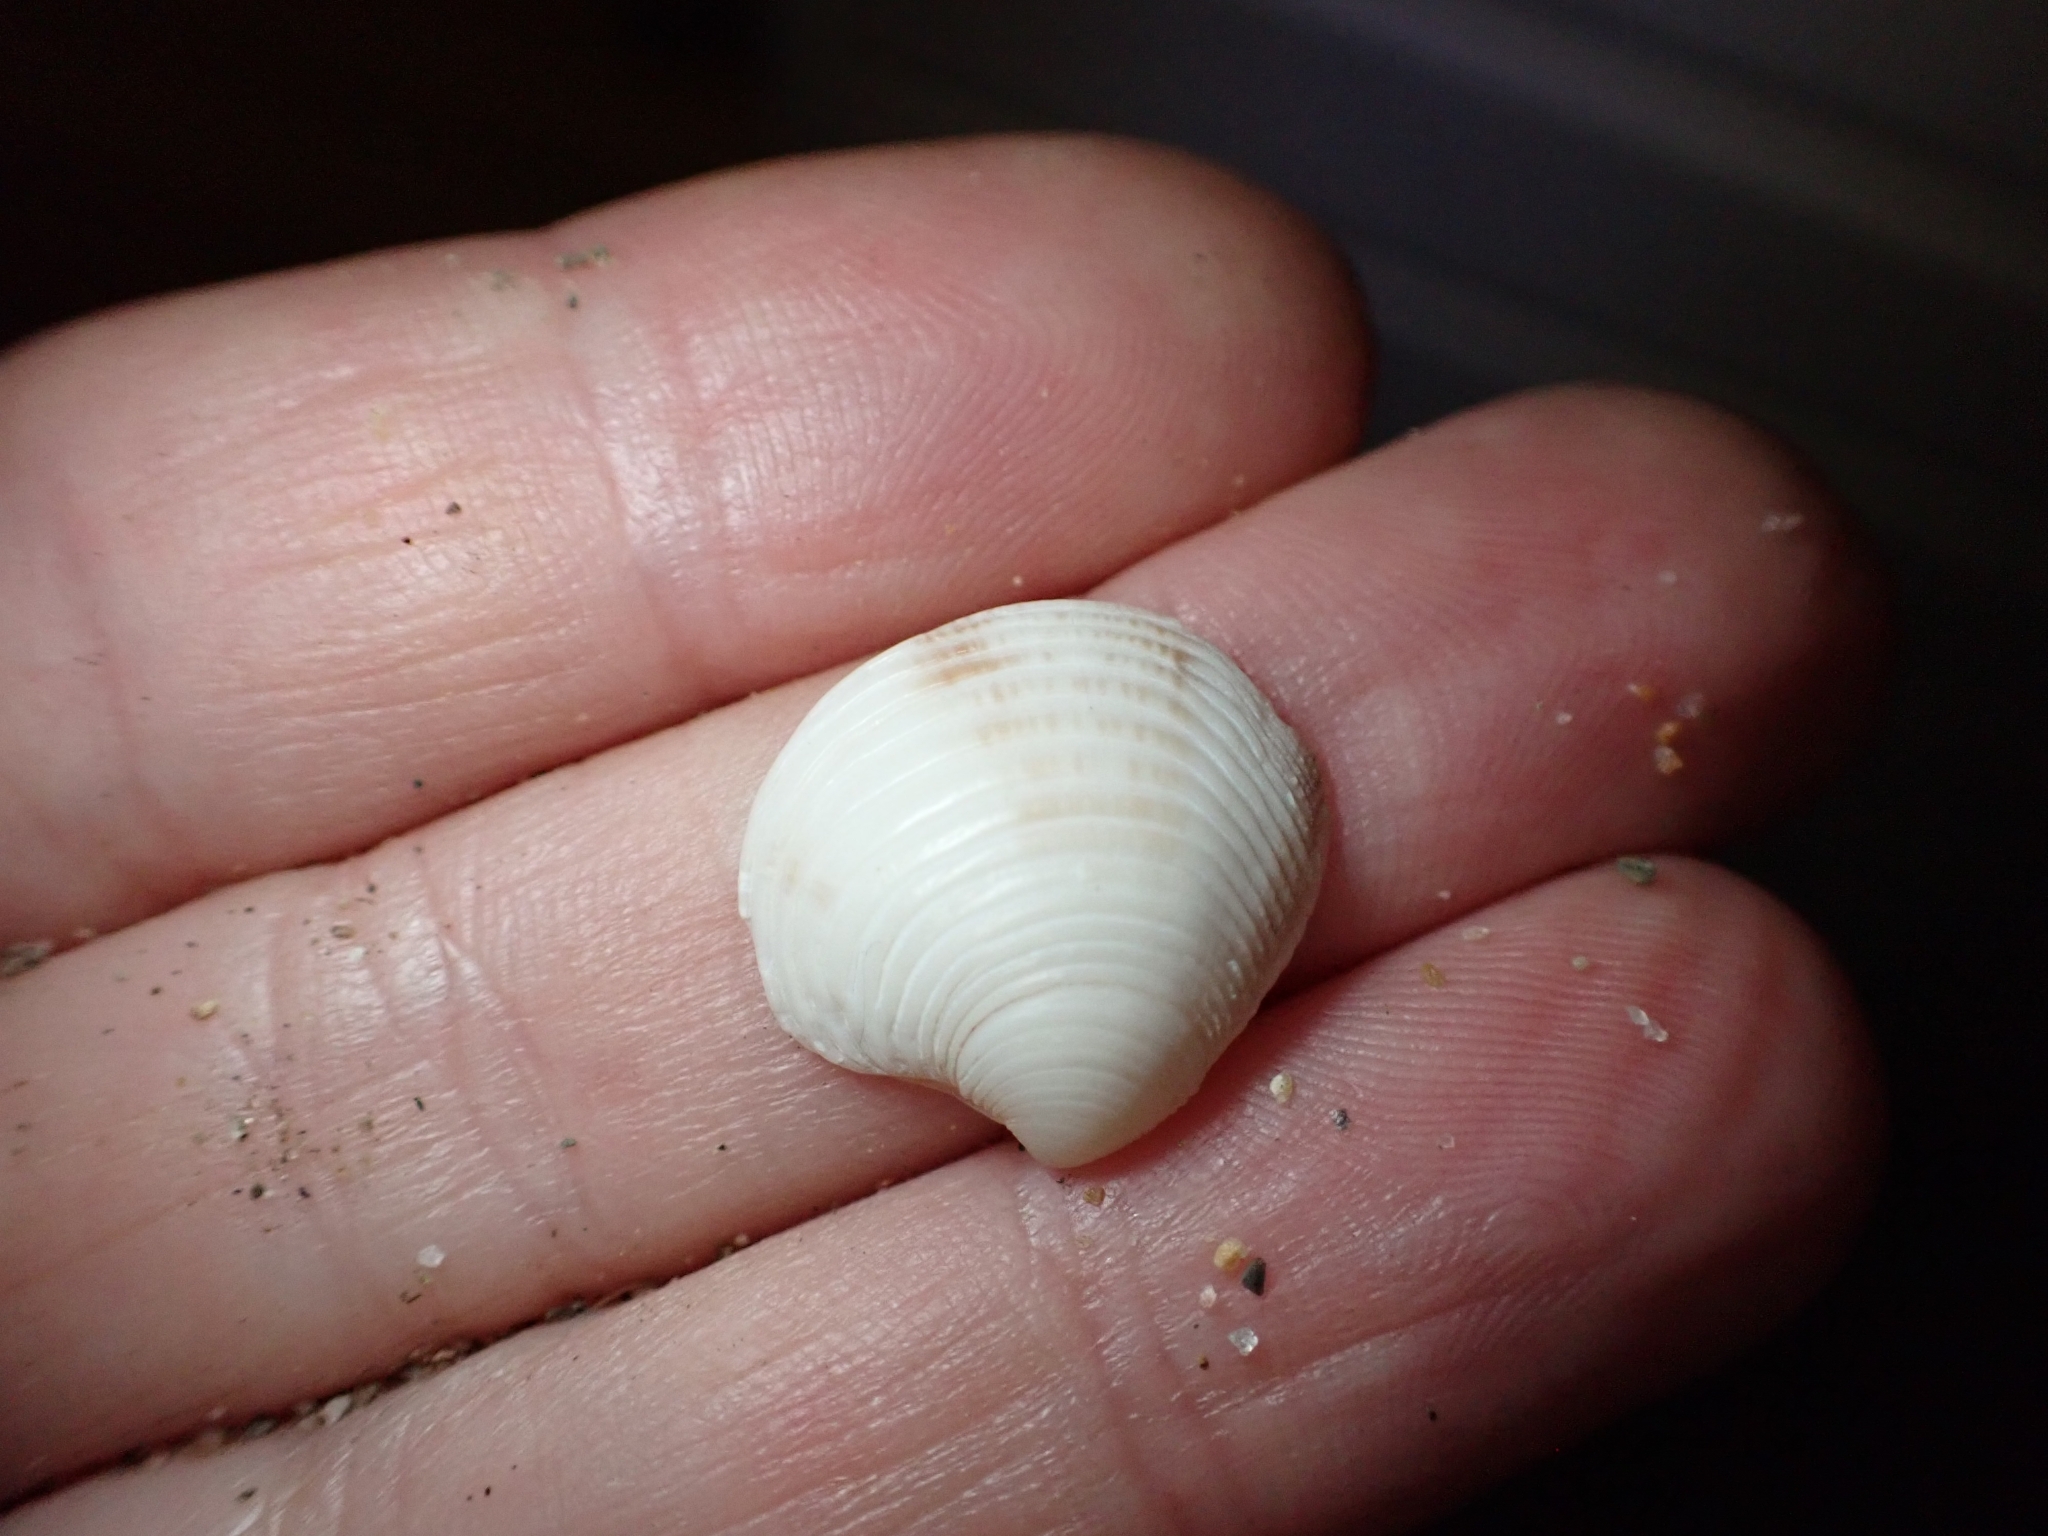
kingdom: Animalia
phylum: Mollusca
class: Bivalvia
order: Venerida
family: Veneridae
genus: Chamelea
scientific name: Chamelea gallina
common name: Chicken venus
